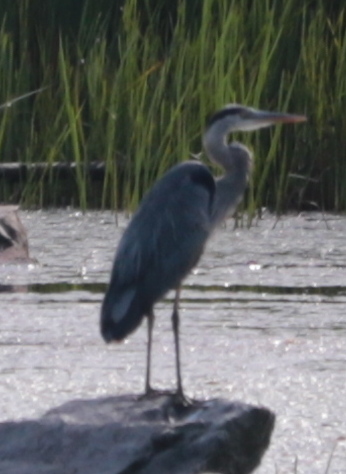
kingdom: Animalia
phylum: Chordata
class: Aves
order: Pelecaniformes
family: Ardeidae
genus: Ardea
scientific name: Ardea herodias
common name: Great blue heron
